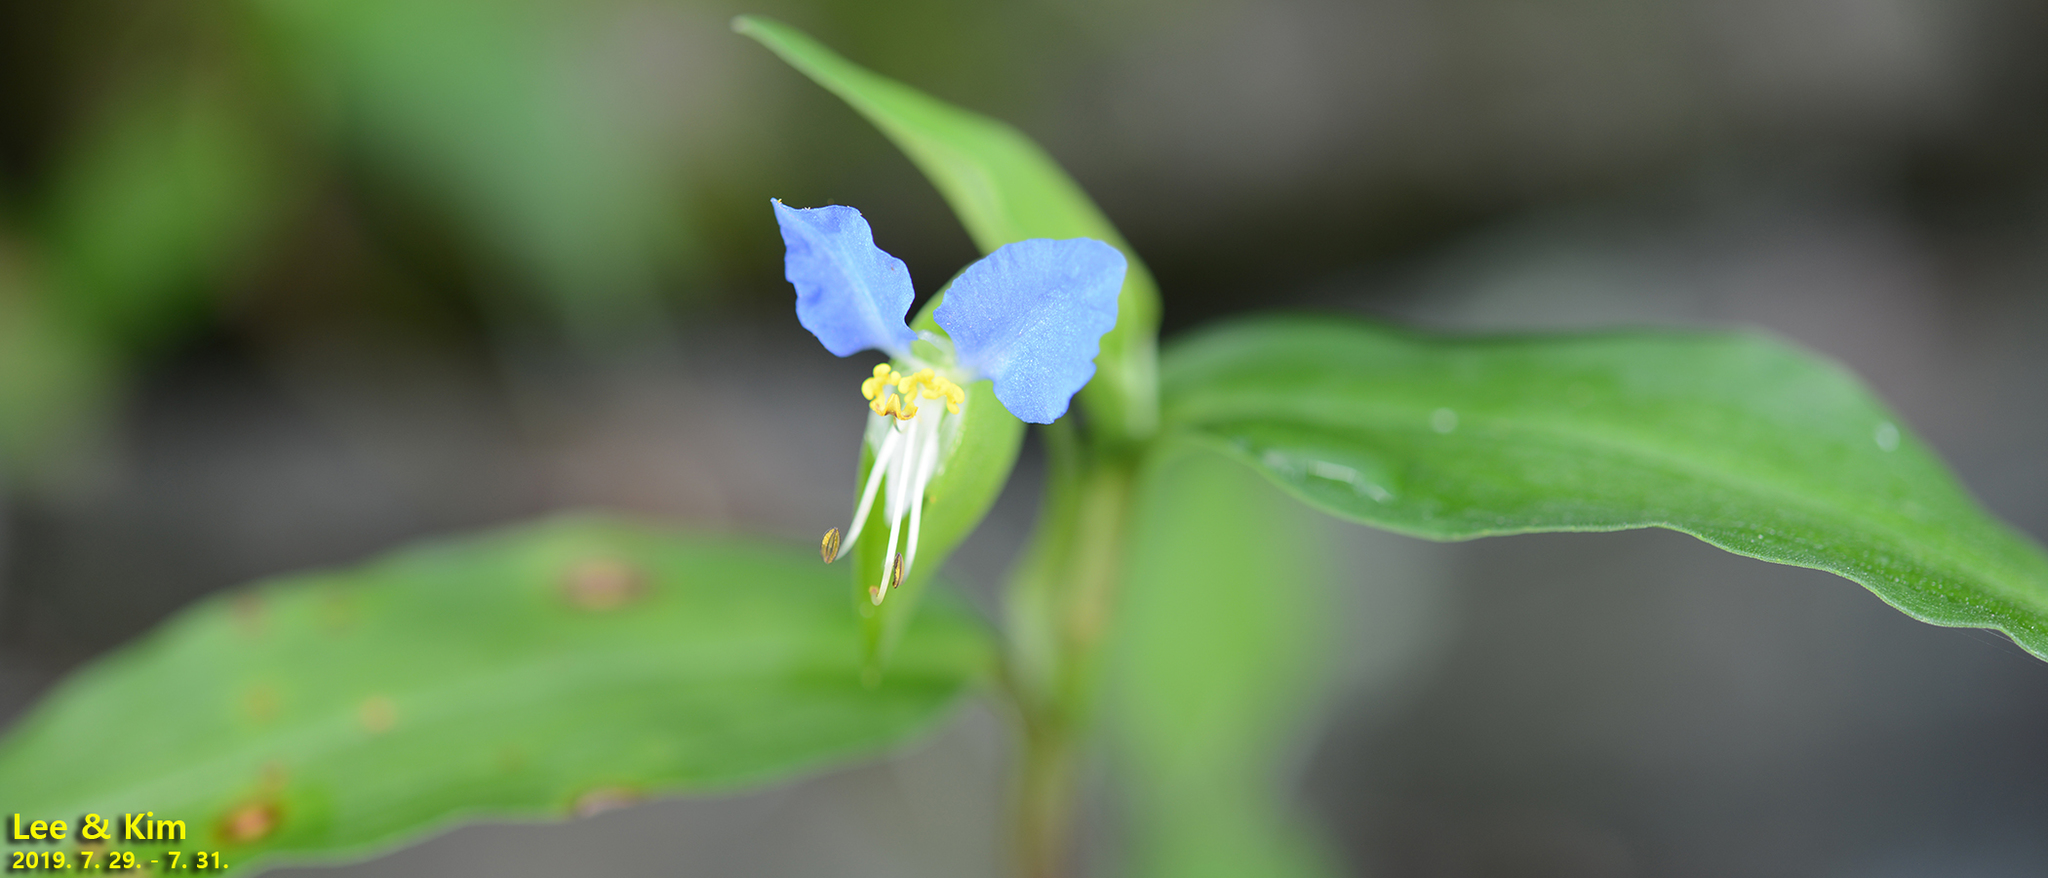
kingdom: Plantae
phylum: Tracheophyta
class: Liliopsida
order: Commelinales
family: Commelinaceae
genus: Commelina
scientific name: Commelina communis
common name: Asiatic dayflower
